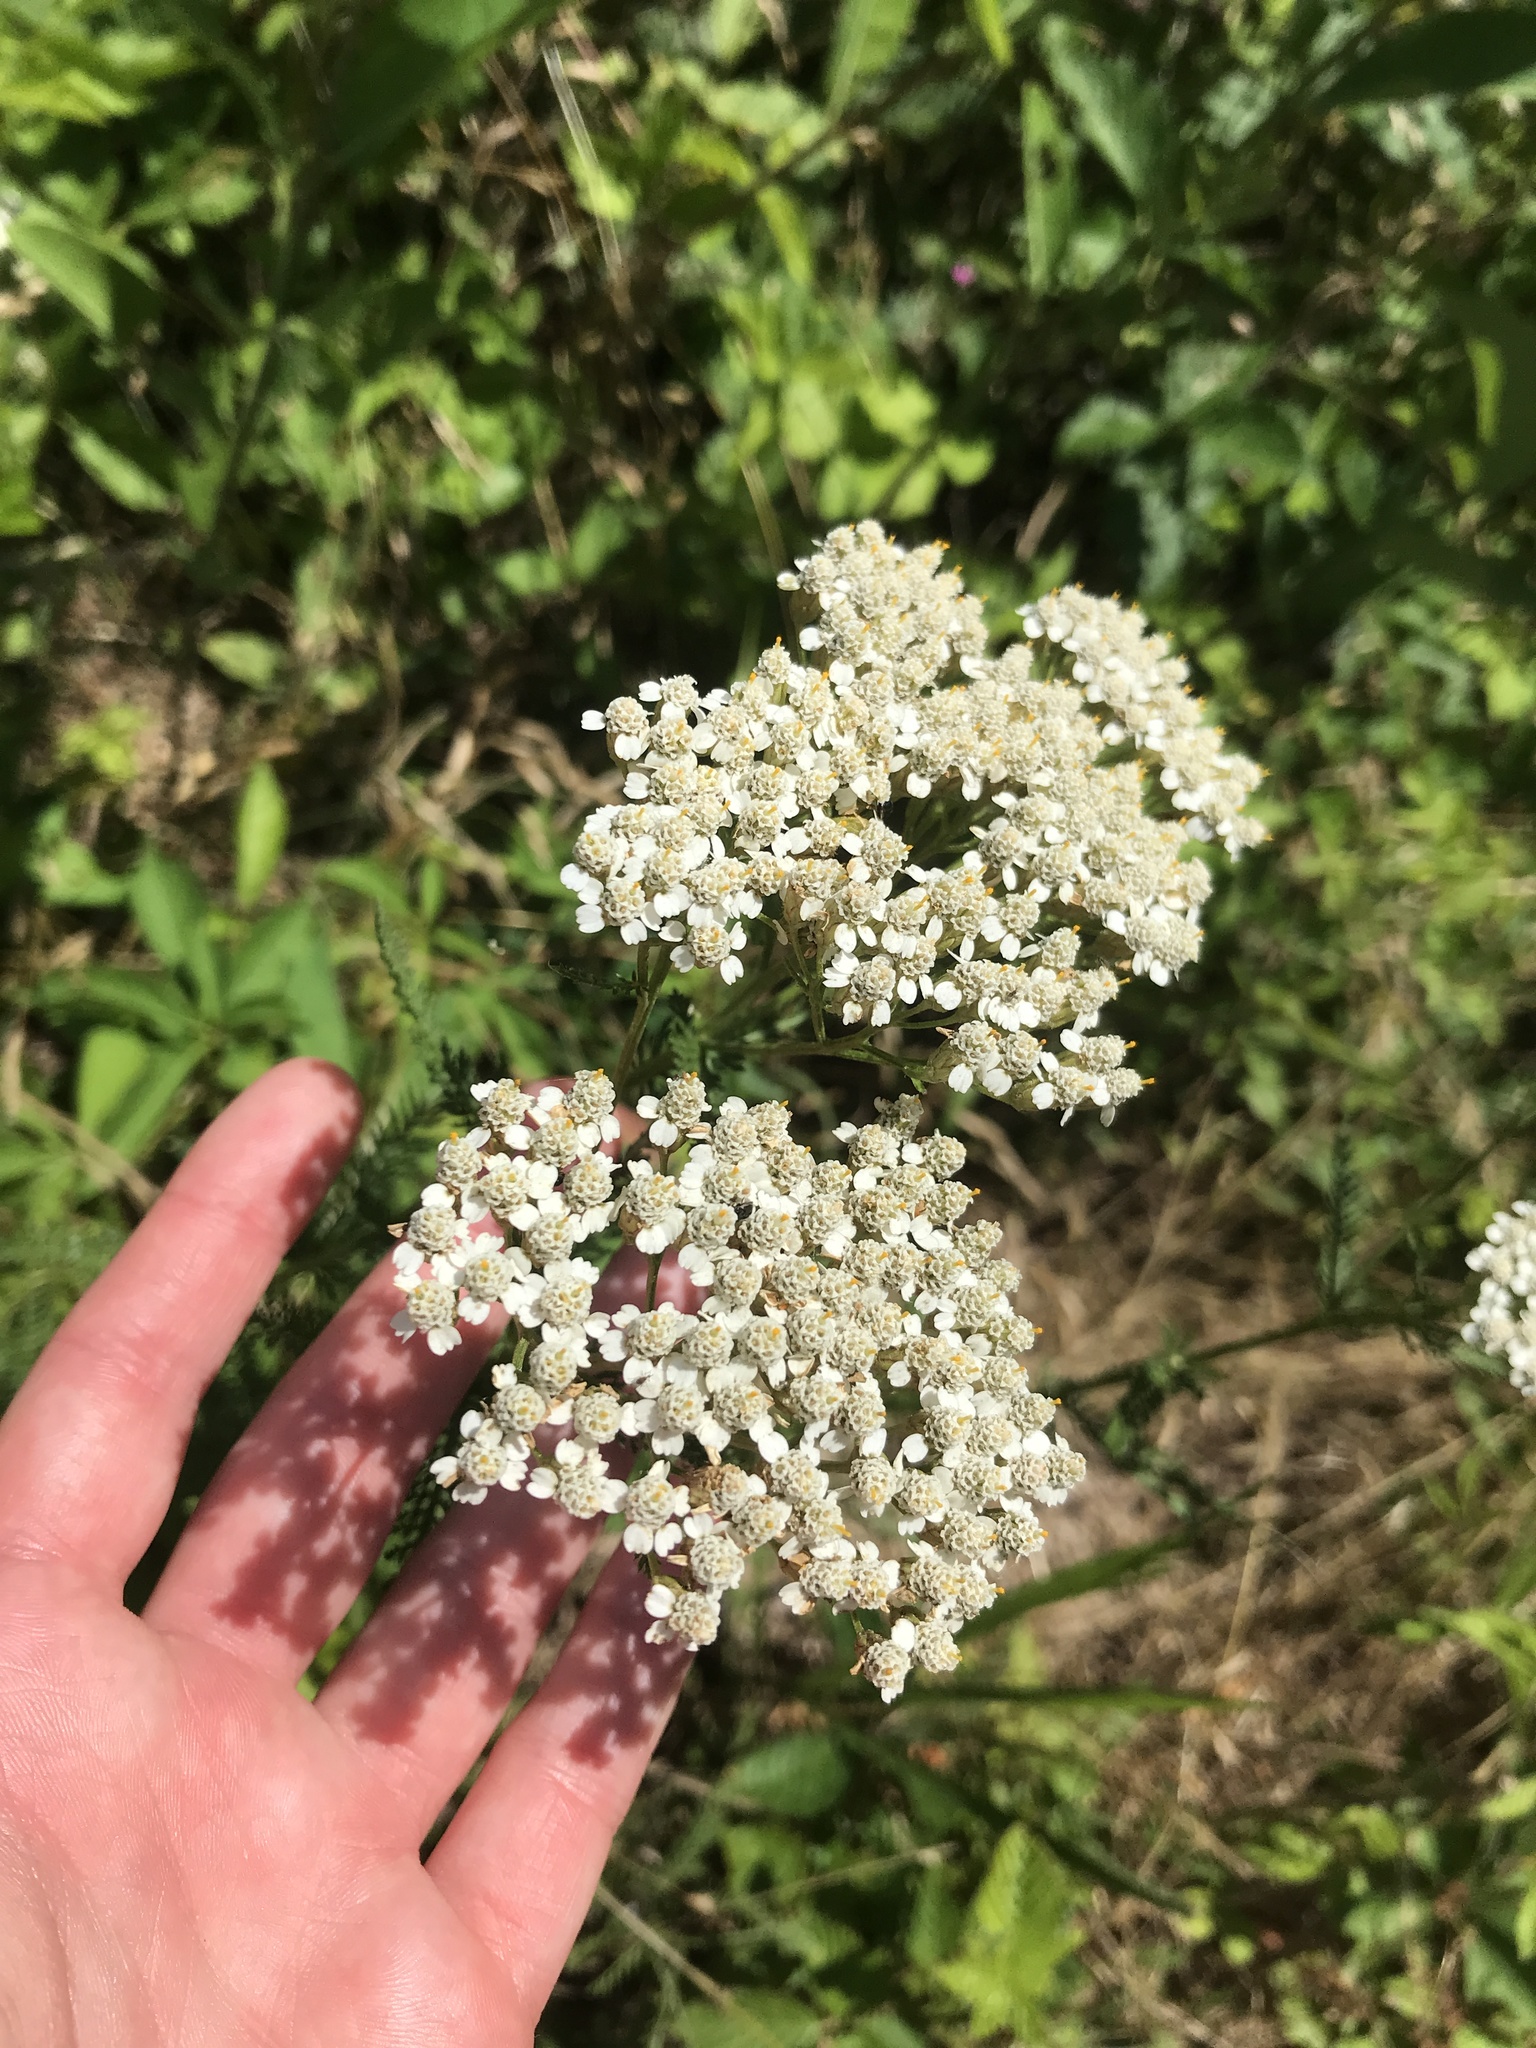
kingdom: Plantae
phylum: Tracheophyta
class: Magnoliopsida
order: Asterales
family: Asteraceae
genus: Achillea
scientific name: Achillea millefolium
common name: Yarrow
